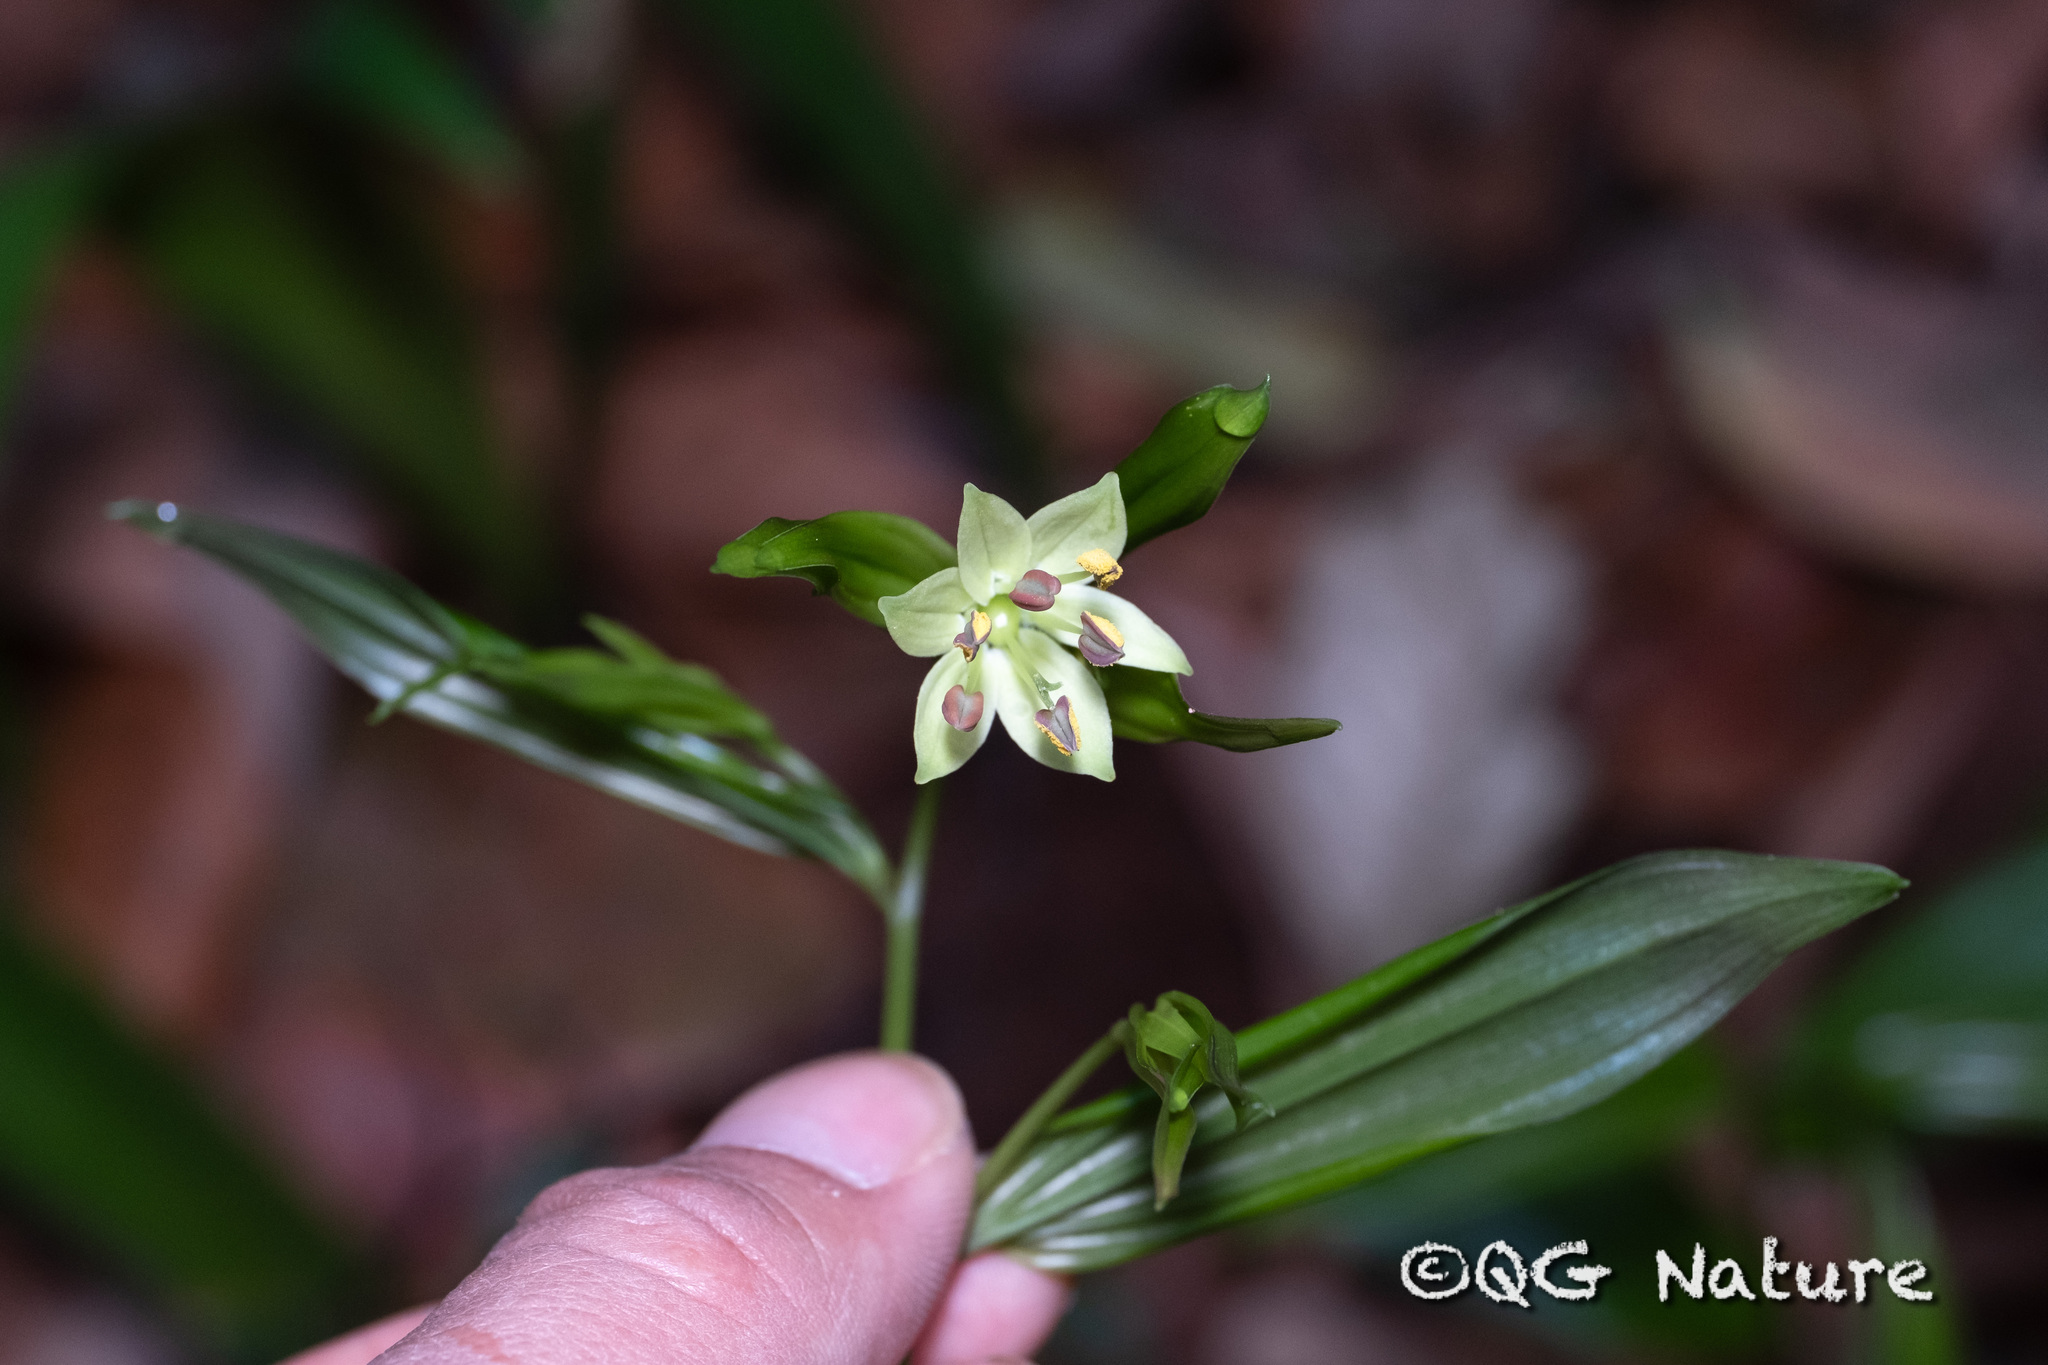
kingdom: Plantae
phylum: Tracheophyta
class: Liliopsida
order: Liliales
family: Colchicaceae
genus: Disporum
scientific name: Disporum longistylum
